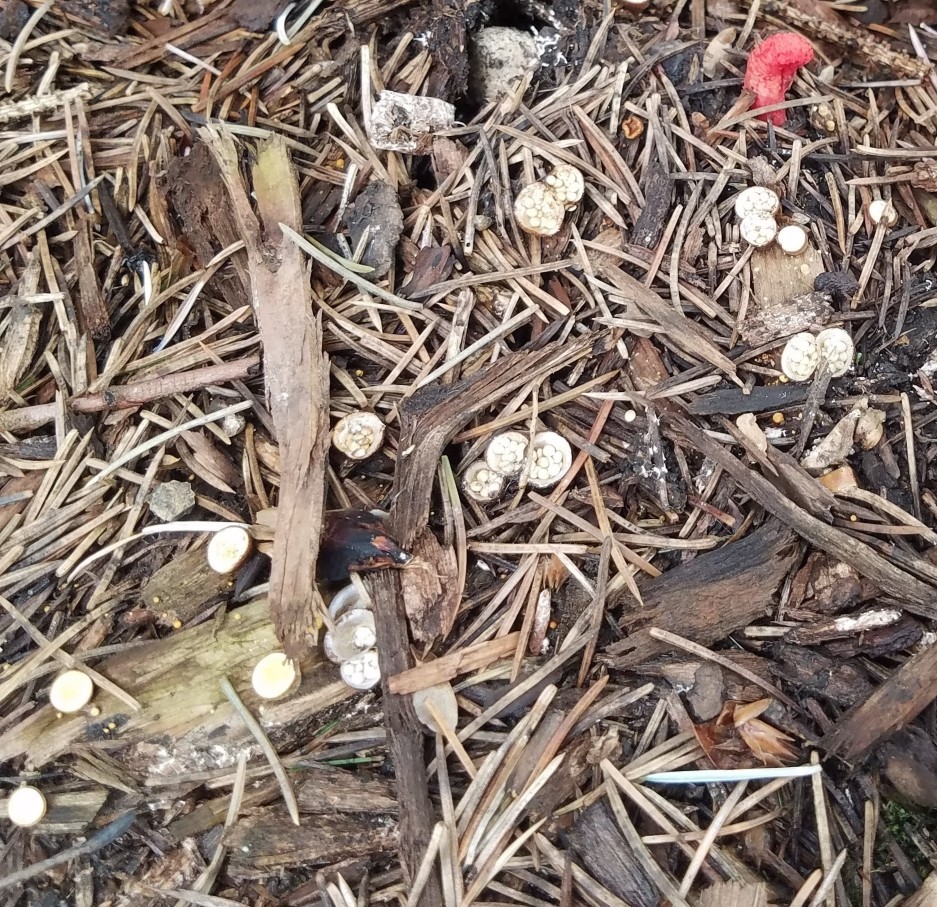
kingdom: Fungi
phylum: Basidiomycota
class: Agaricomycetes
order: Agaricales
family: Nidulariaceae
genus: Crucibulum
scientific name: Crucibulum laeve
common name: Common bird's nest
